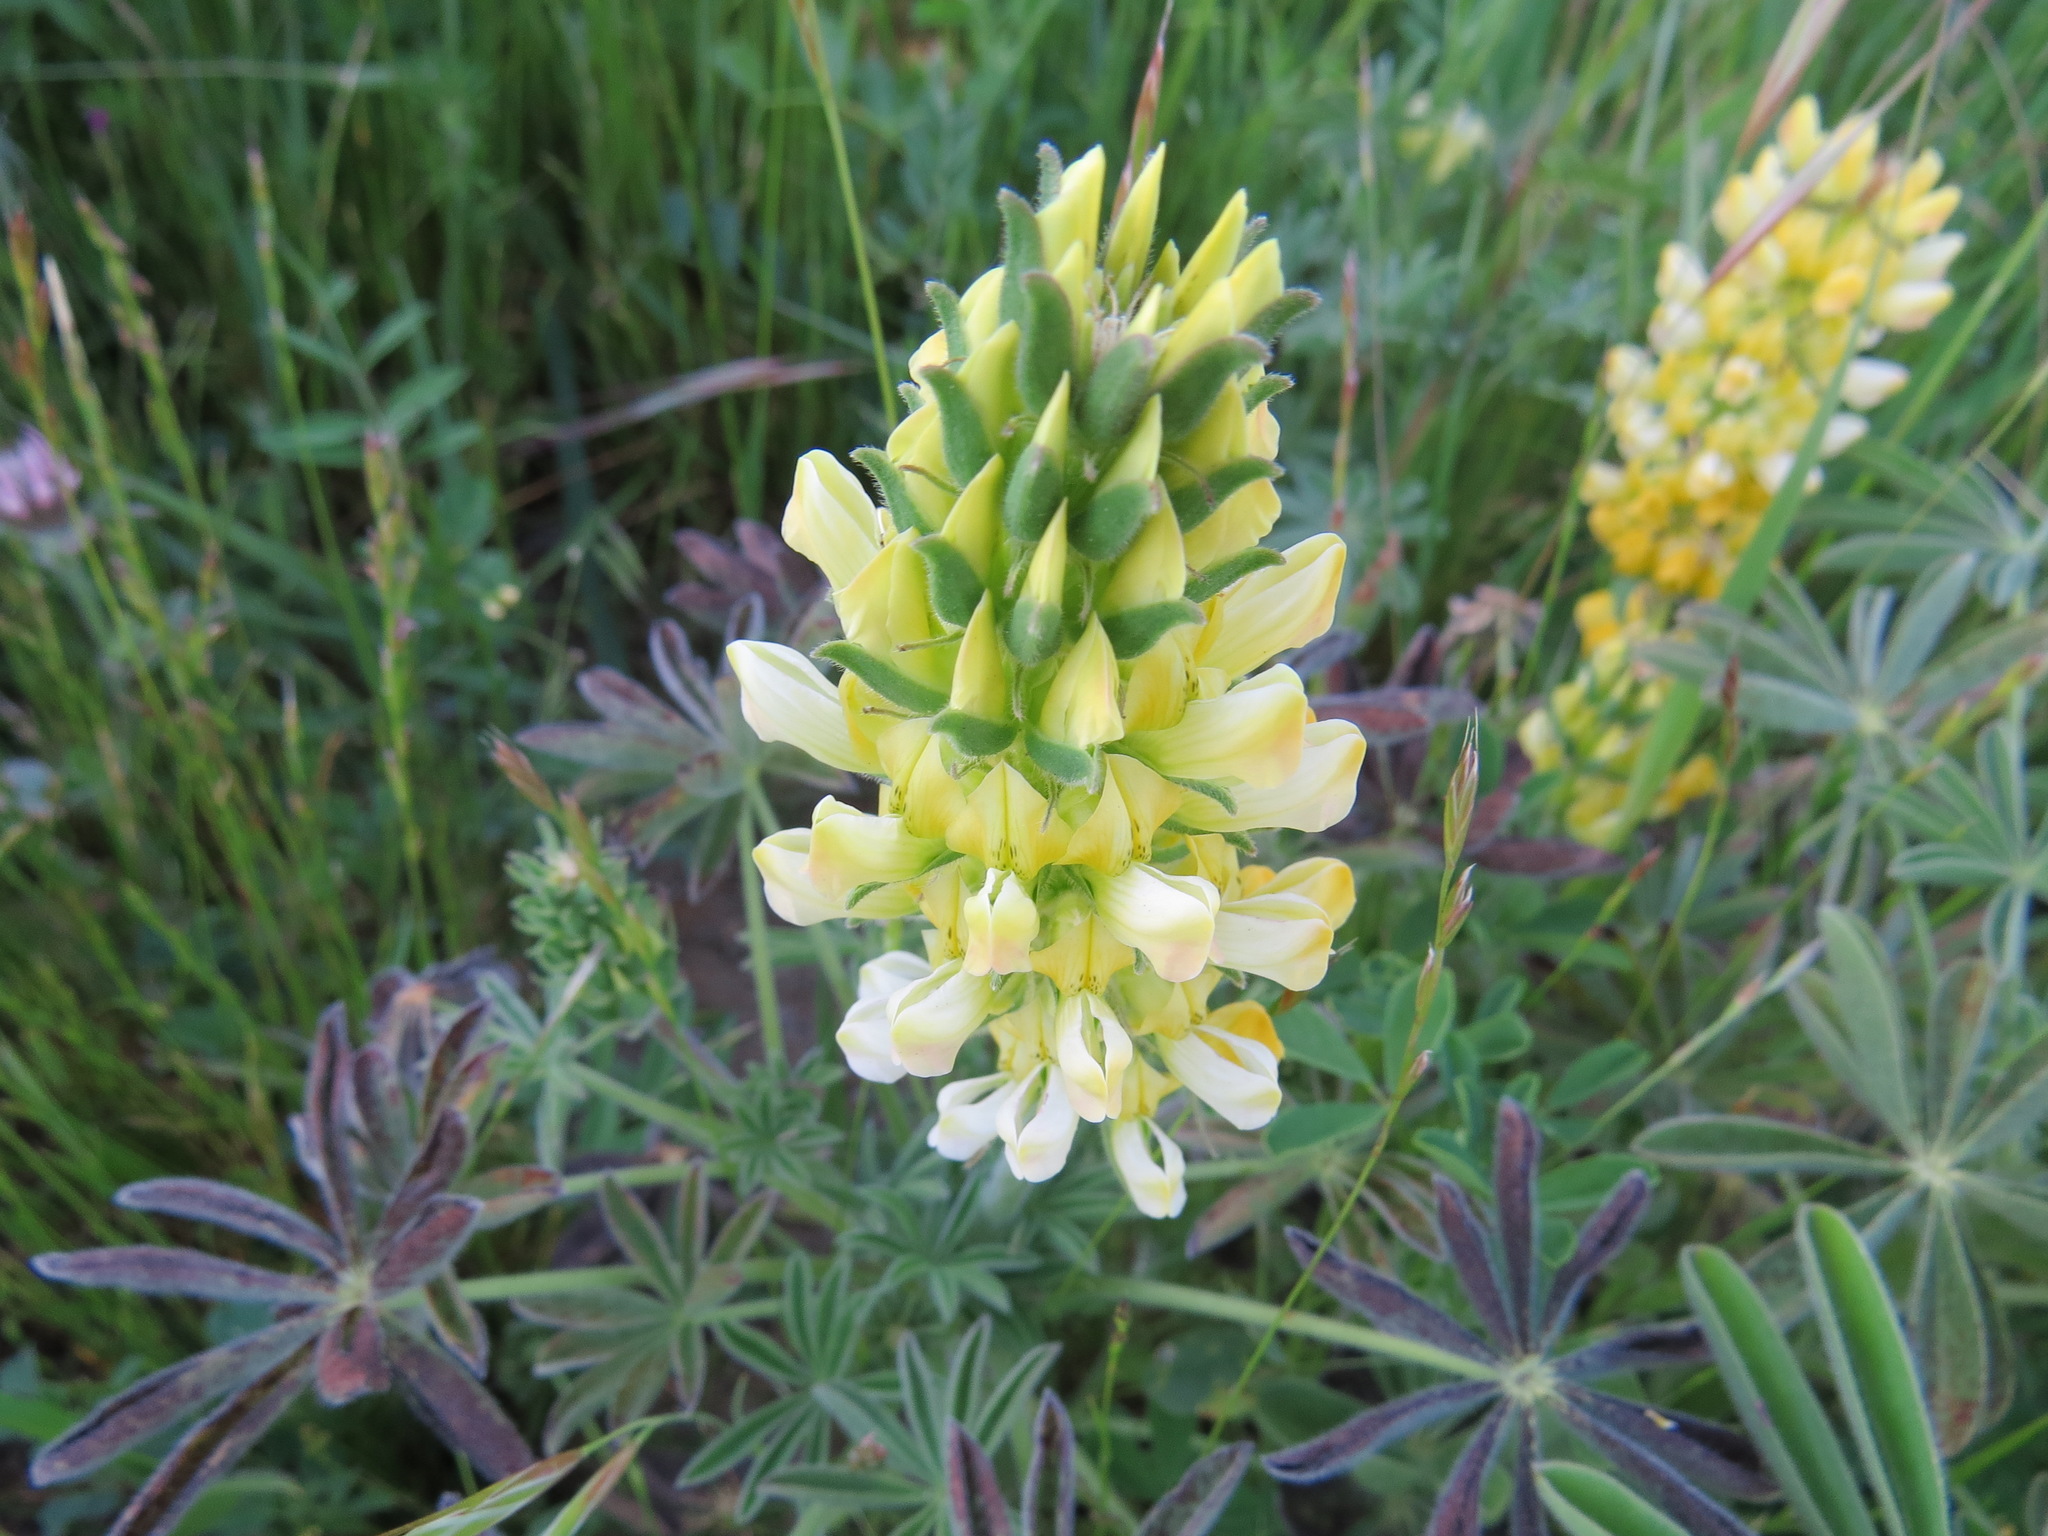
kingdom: Plantae
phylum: Tracheophyta
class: Magnoliopsida
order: Fabales
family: Fabaceae
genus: Lupinus
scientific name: Lupinus microcarpus
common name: Chick lupine
